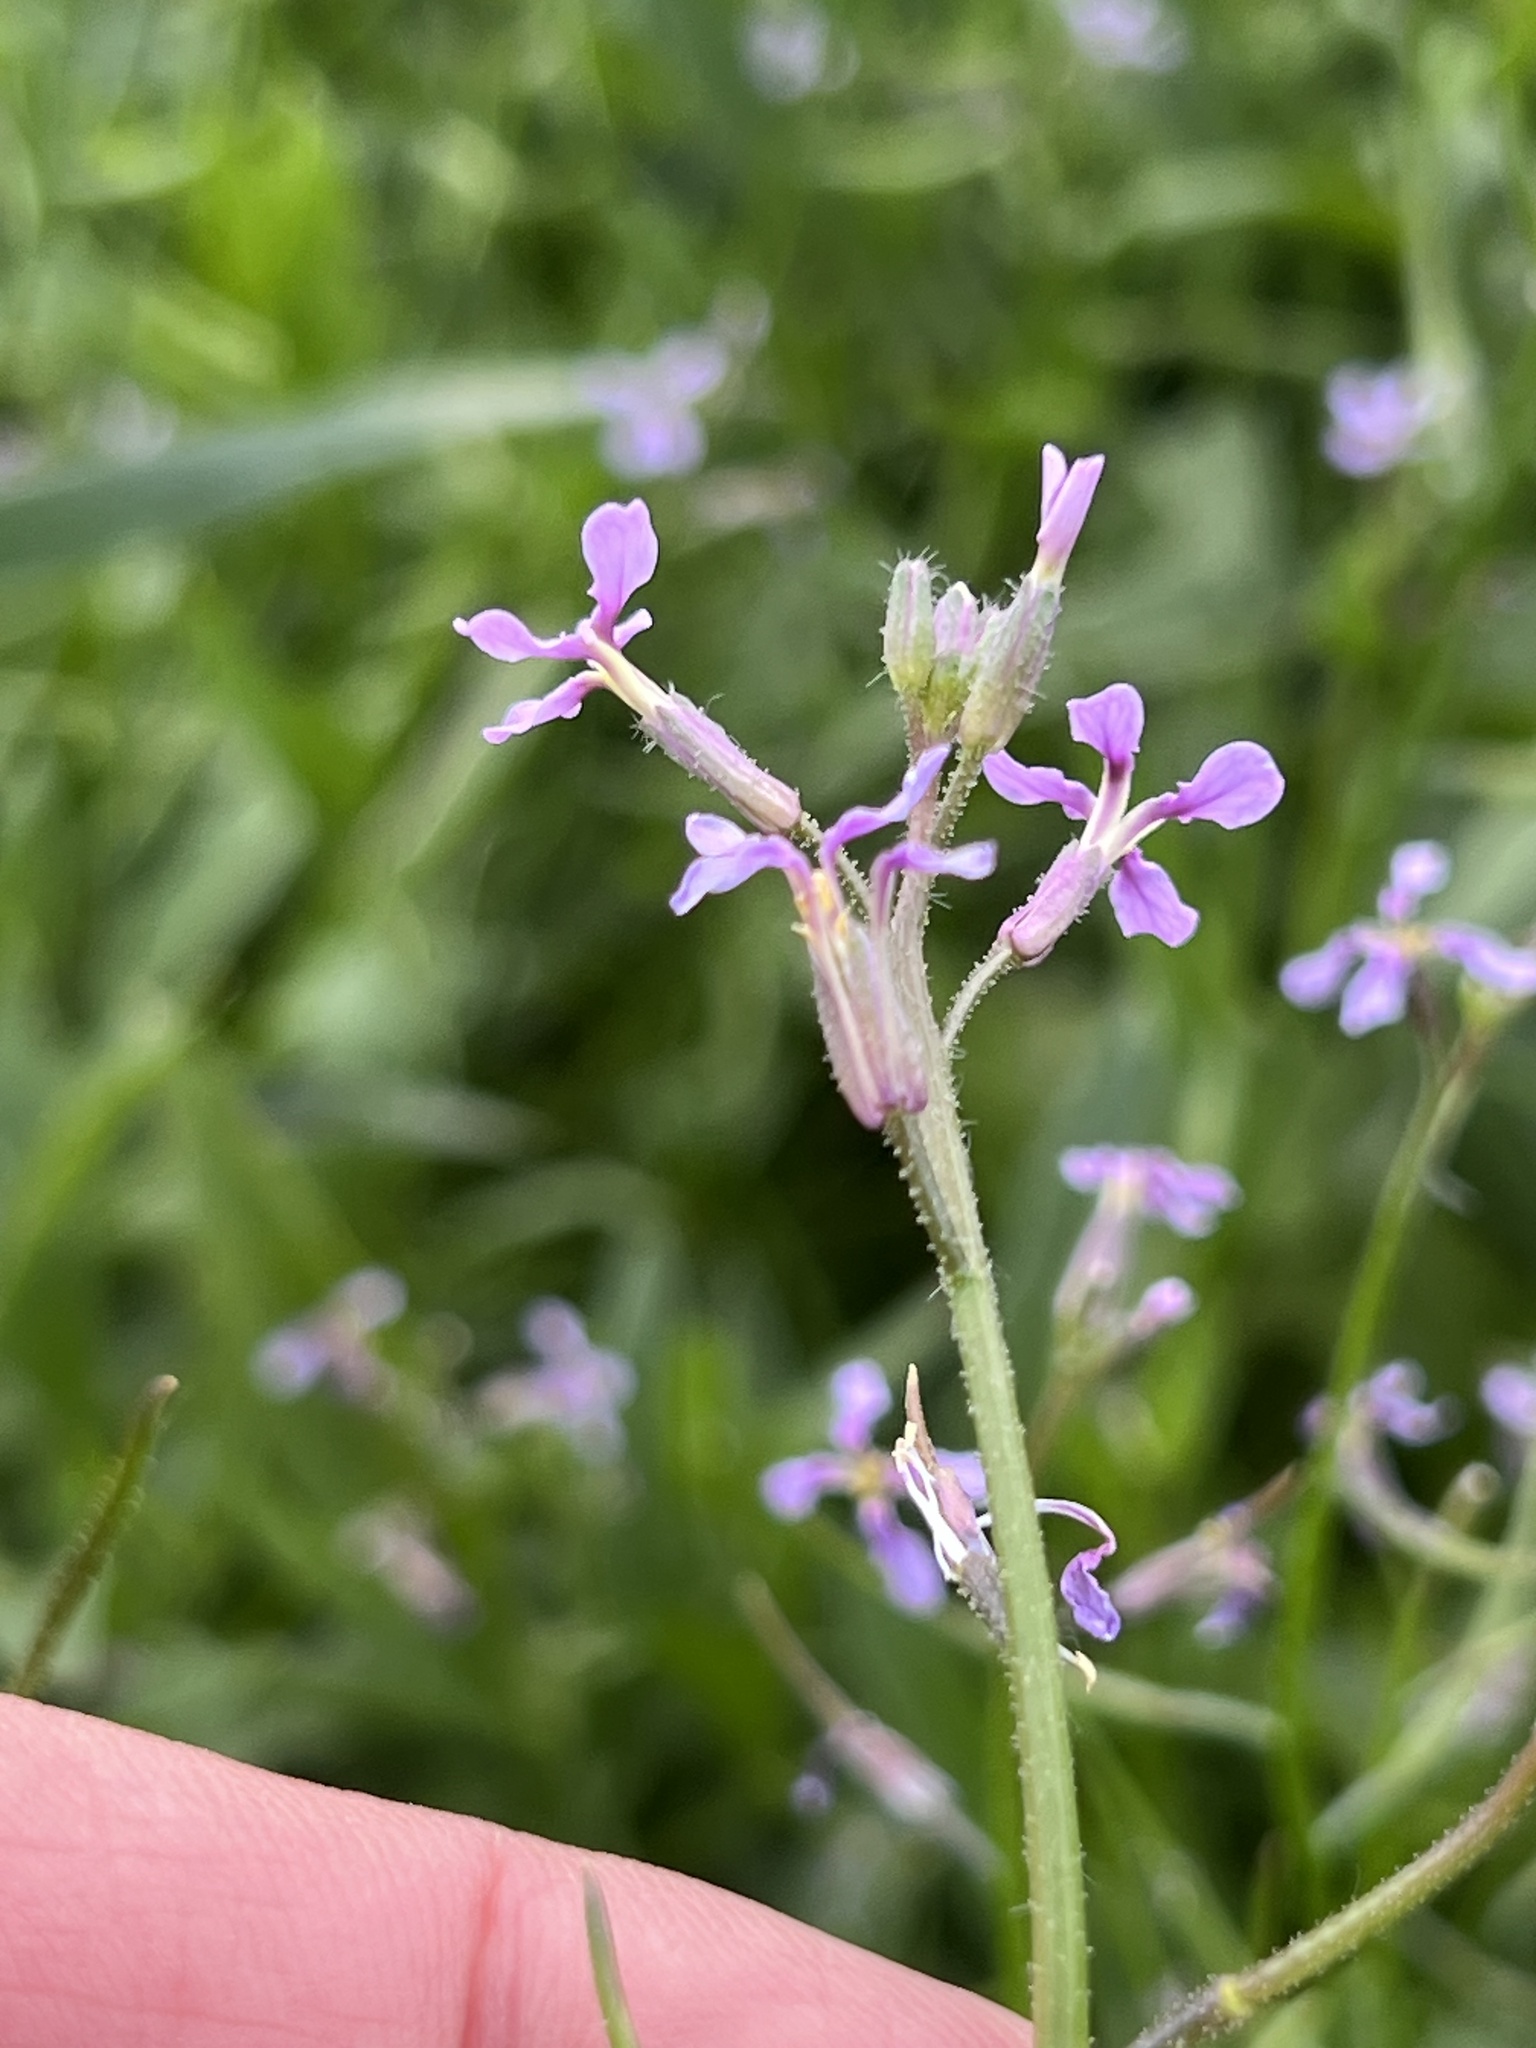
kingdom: Plantae
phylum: Tracheophyta
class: Magnoliopsida
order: Brassicales
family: Brassicaceae
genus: Chorispora
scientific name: Chorispora tenella
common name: Crossflower
